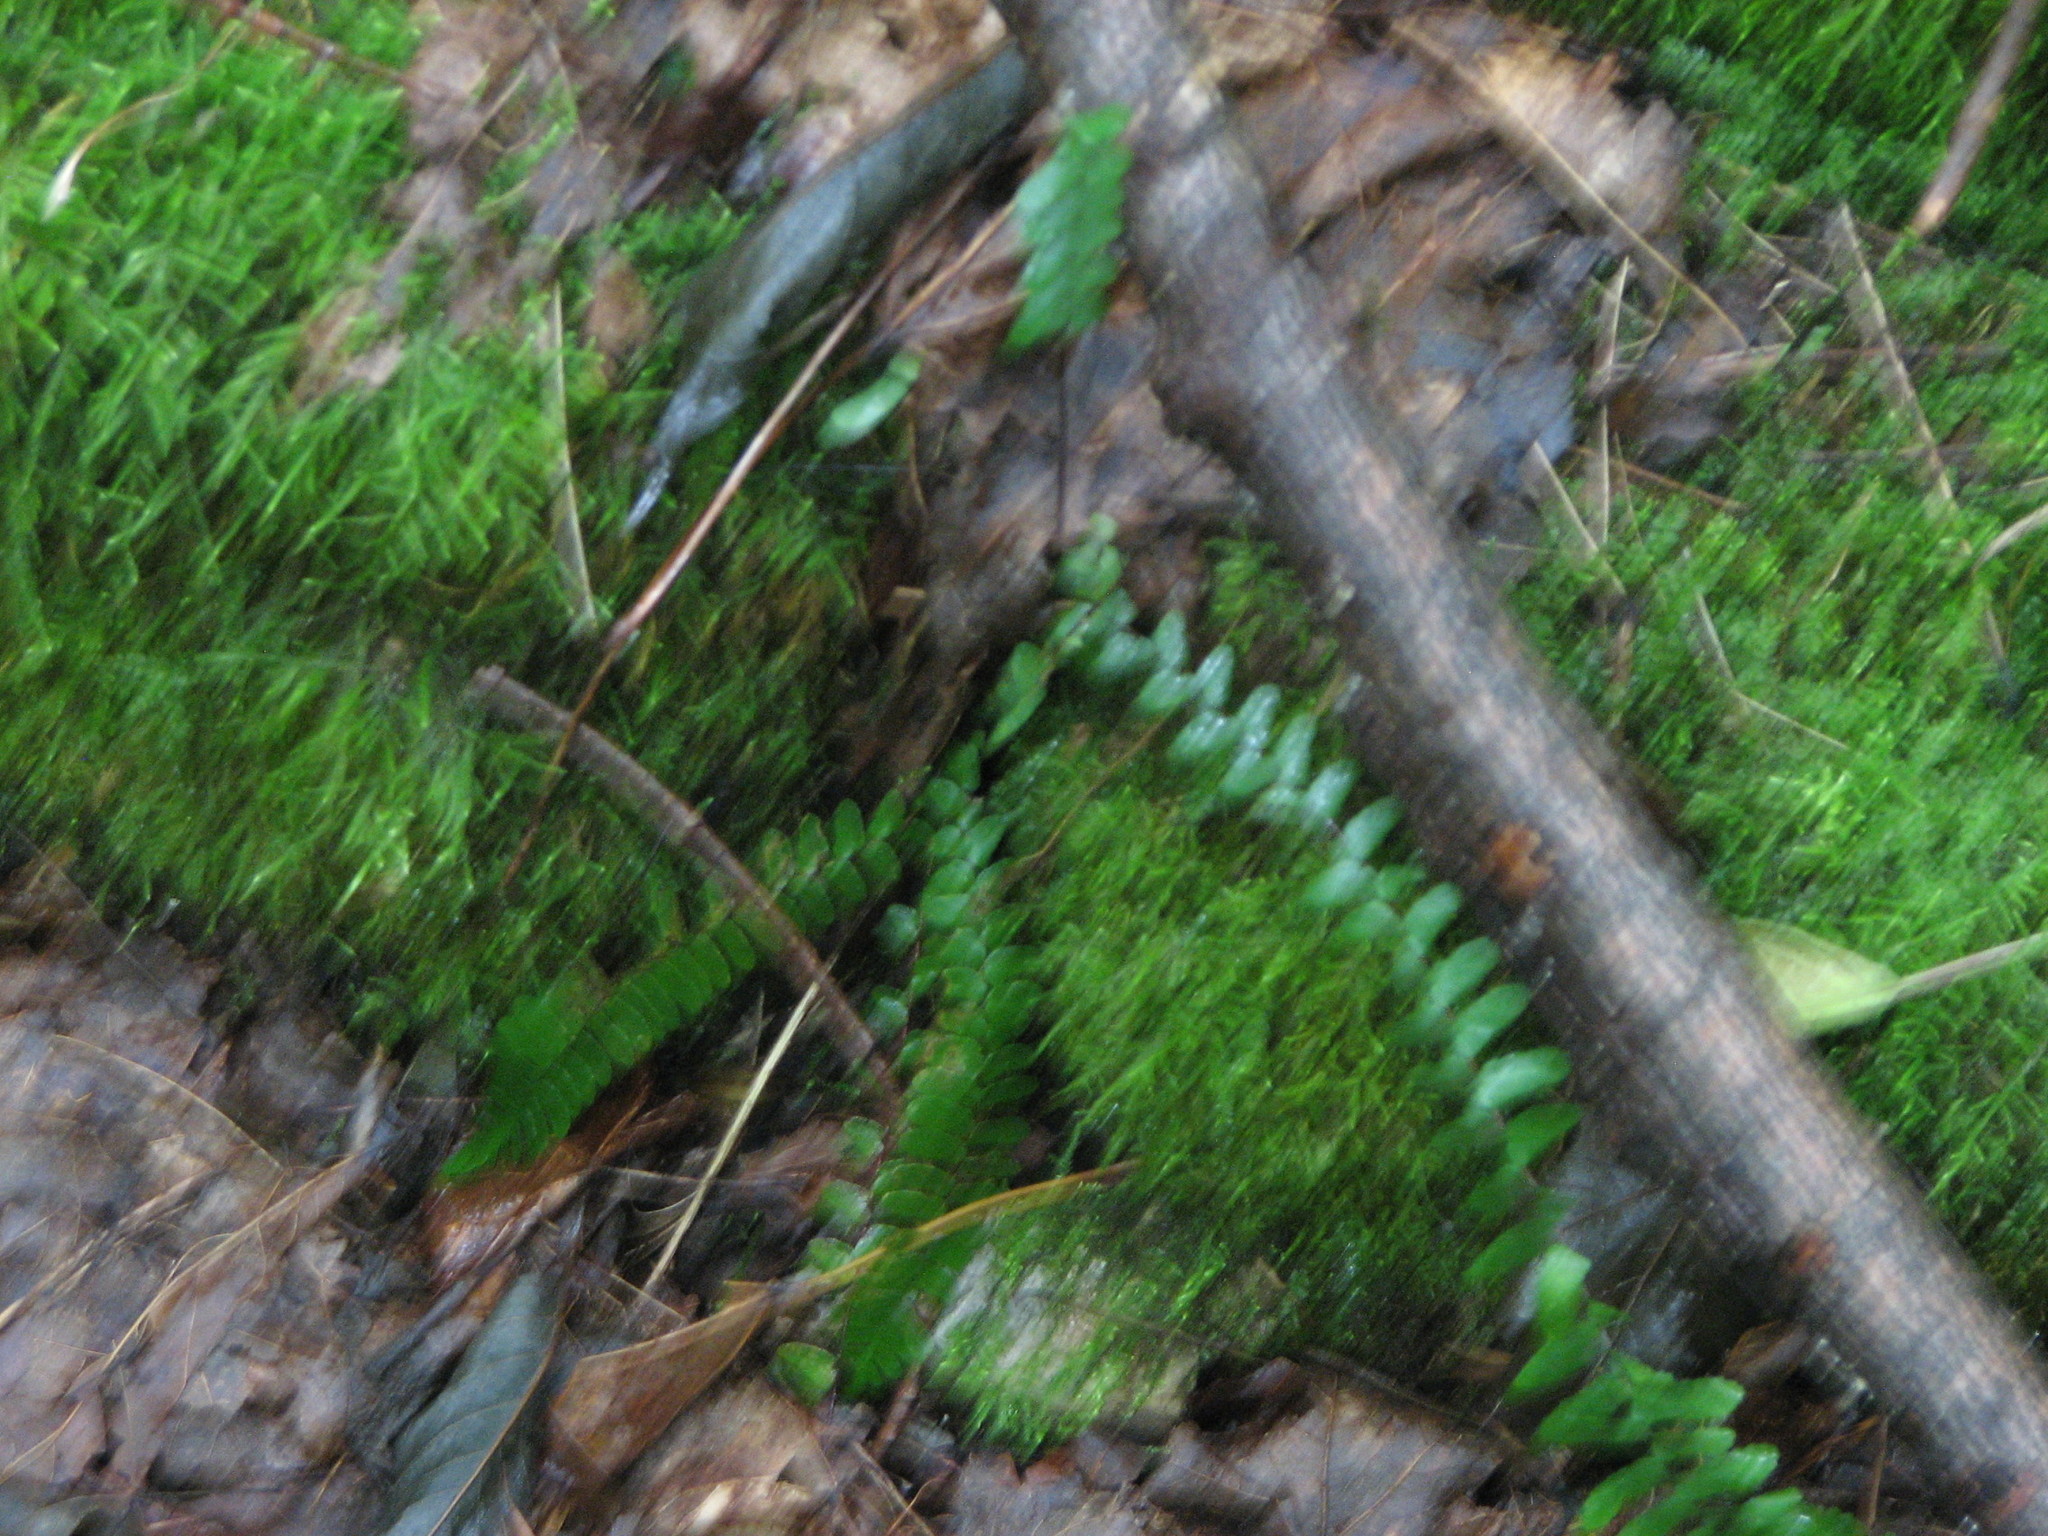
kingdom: Plantae
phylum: Tracheophyta
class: Polypodiopsida
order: Polypodiales
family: Aspleniaceae
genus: Asplenium
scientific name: Asplenium platyneuron
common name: Ebony spleenwort
